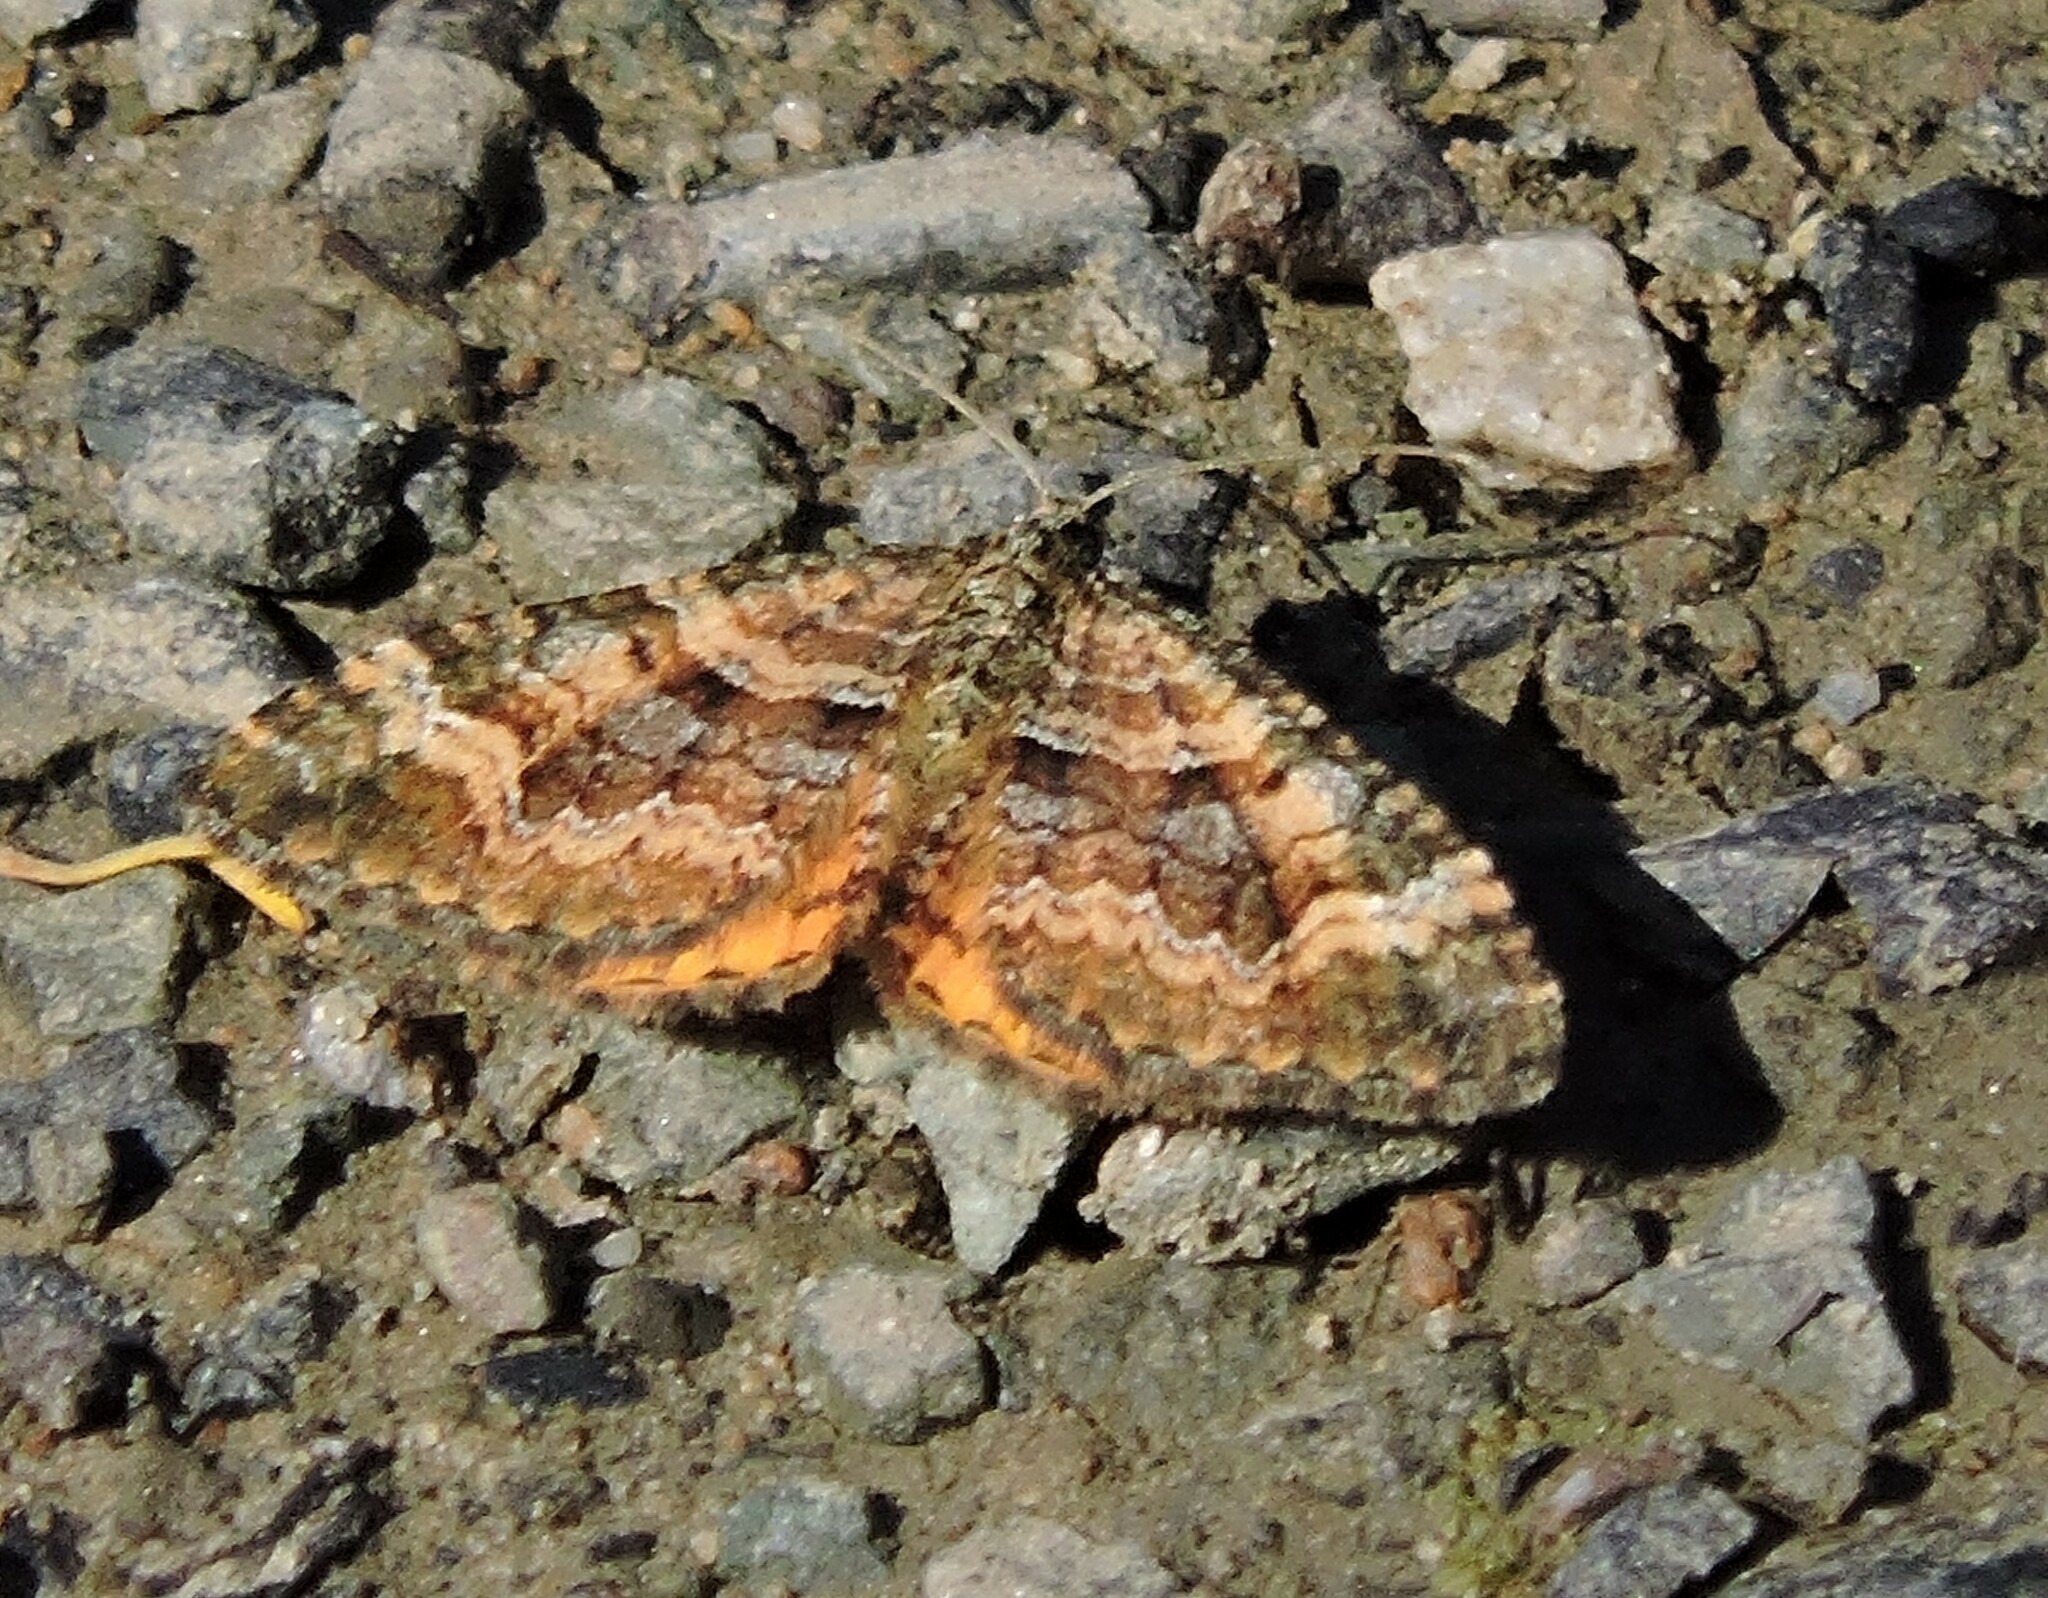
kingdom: Animalia
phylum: Arthropoda
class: Insecta
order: Lepidoptera
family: Geometridae
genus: Epirrhoe
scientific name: Epirrhoe plebeculata
